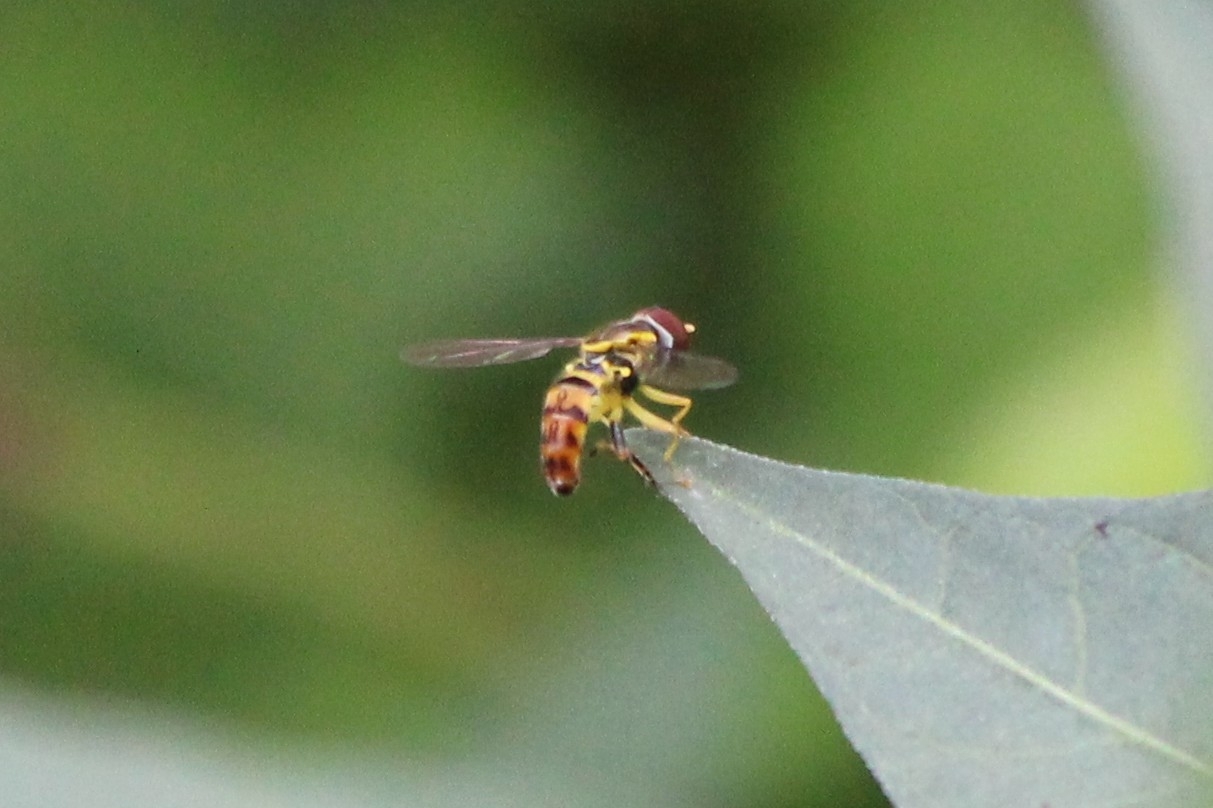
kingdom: Animalia
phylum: Arthropoda
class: Insecta
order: Diptera
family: Syrphidae
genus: Toxomerus
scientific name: Toxomerus geminatus
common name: Eastern calligrapher
